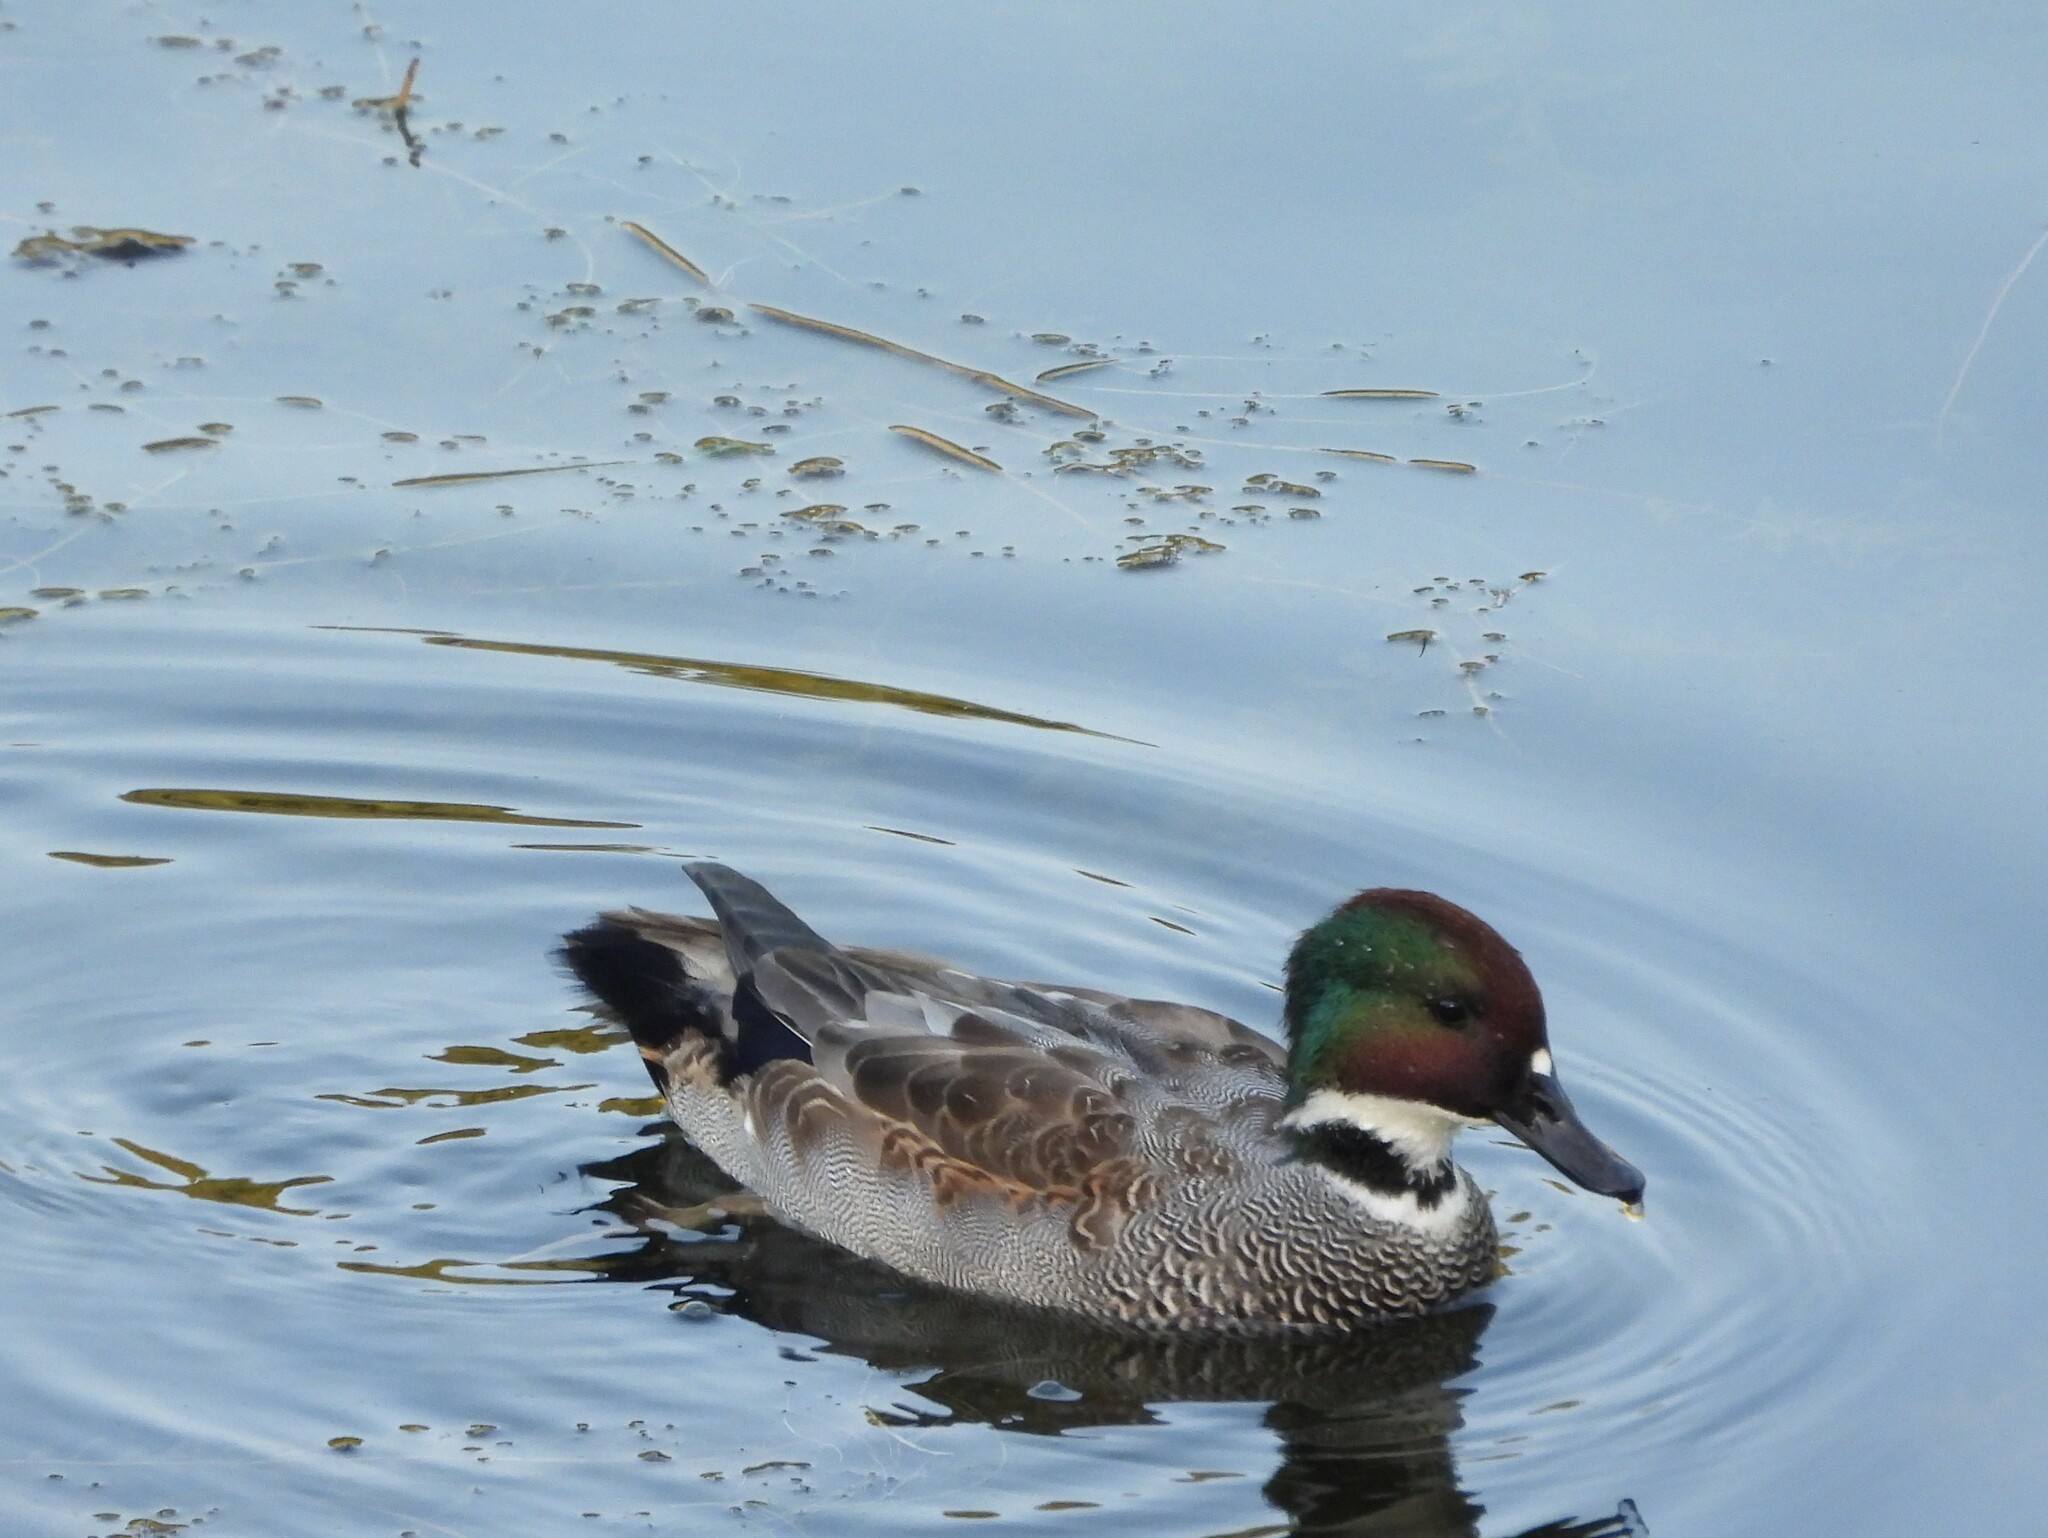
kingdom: Animalia
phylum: Chordata
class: Aves
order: Anseriformes
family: Anatidae
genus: Mareca
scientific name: Mareca falcata
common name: Falcated duck
